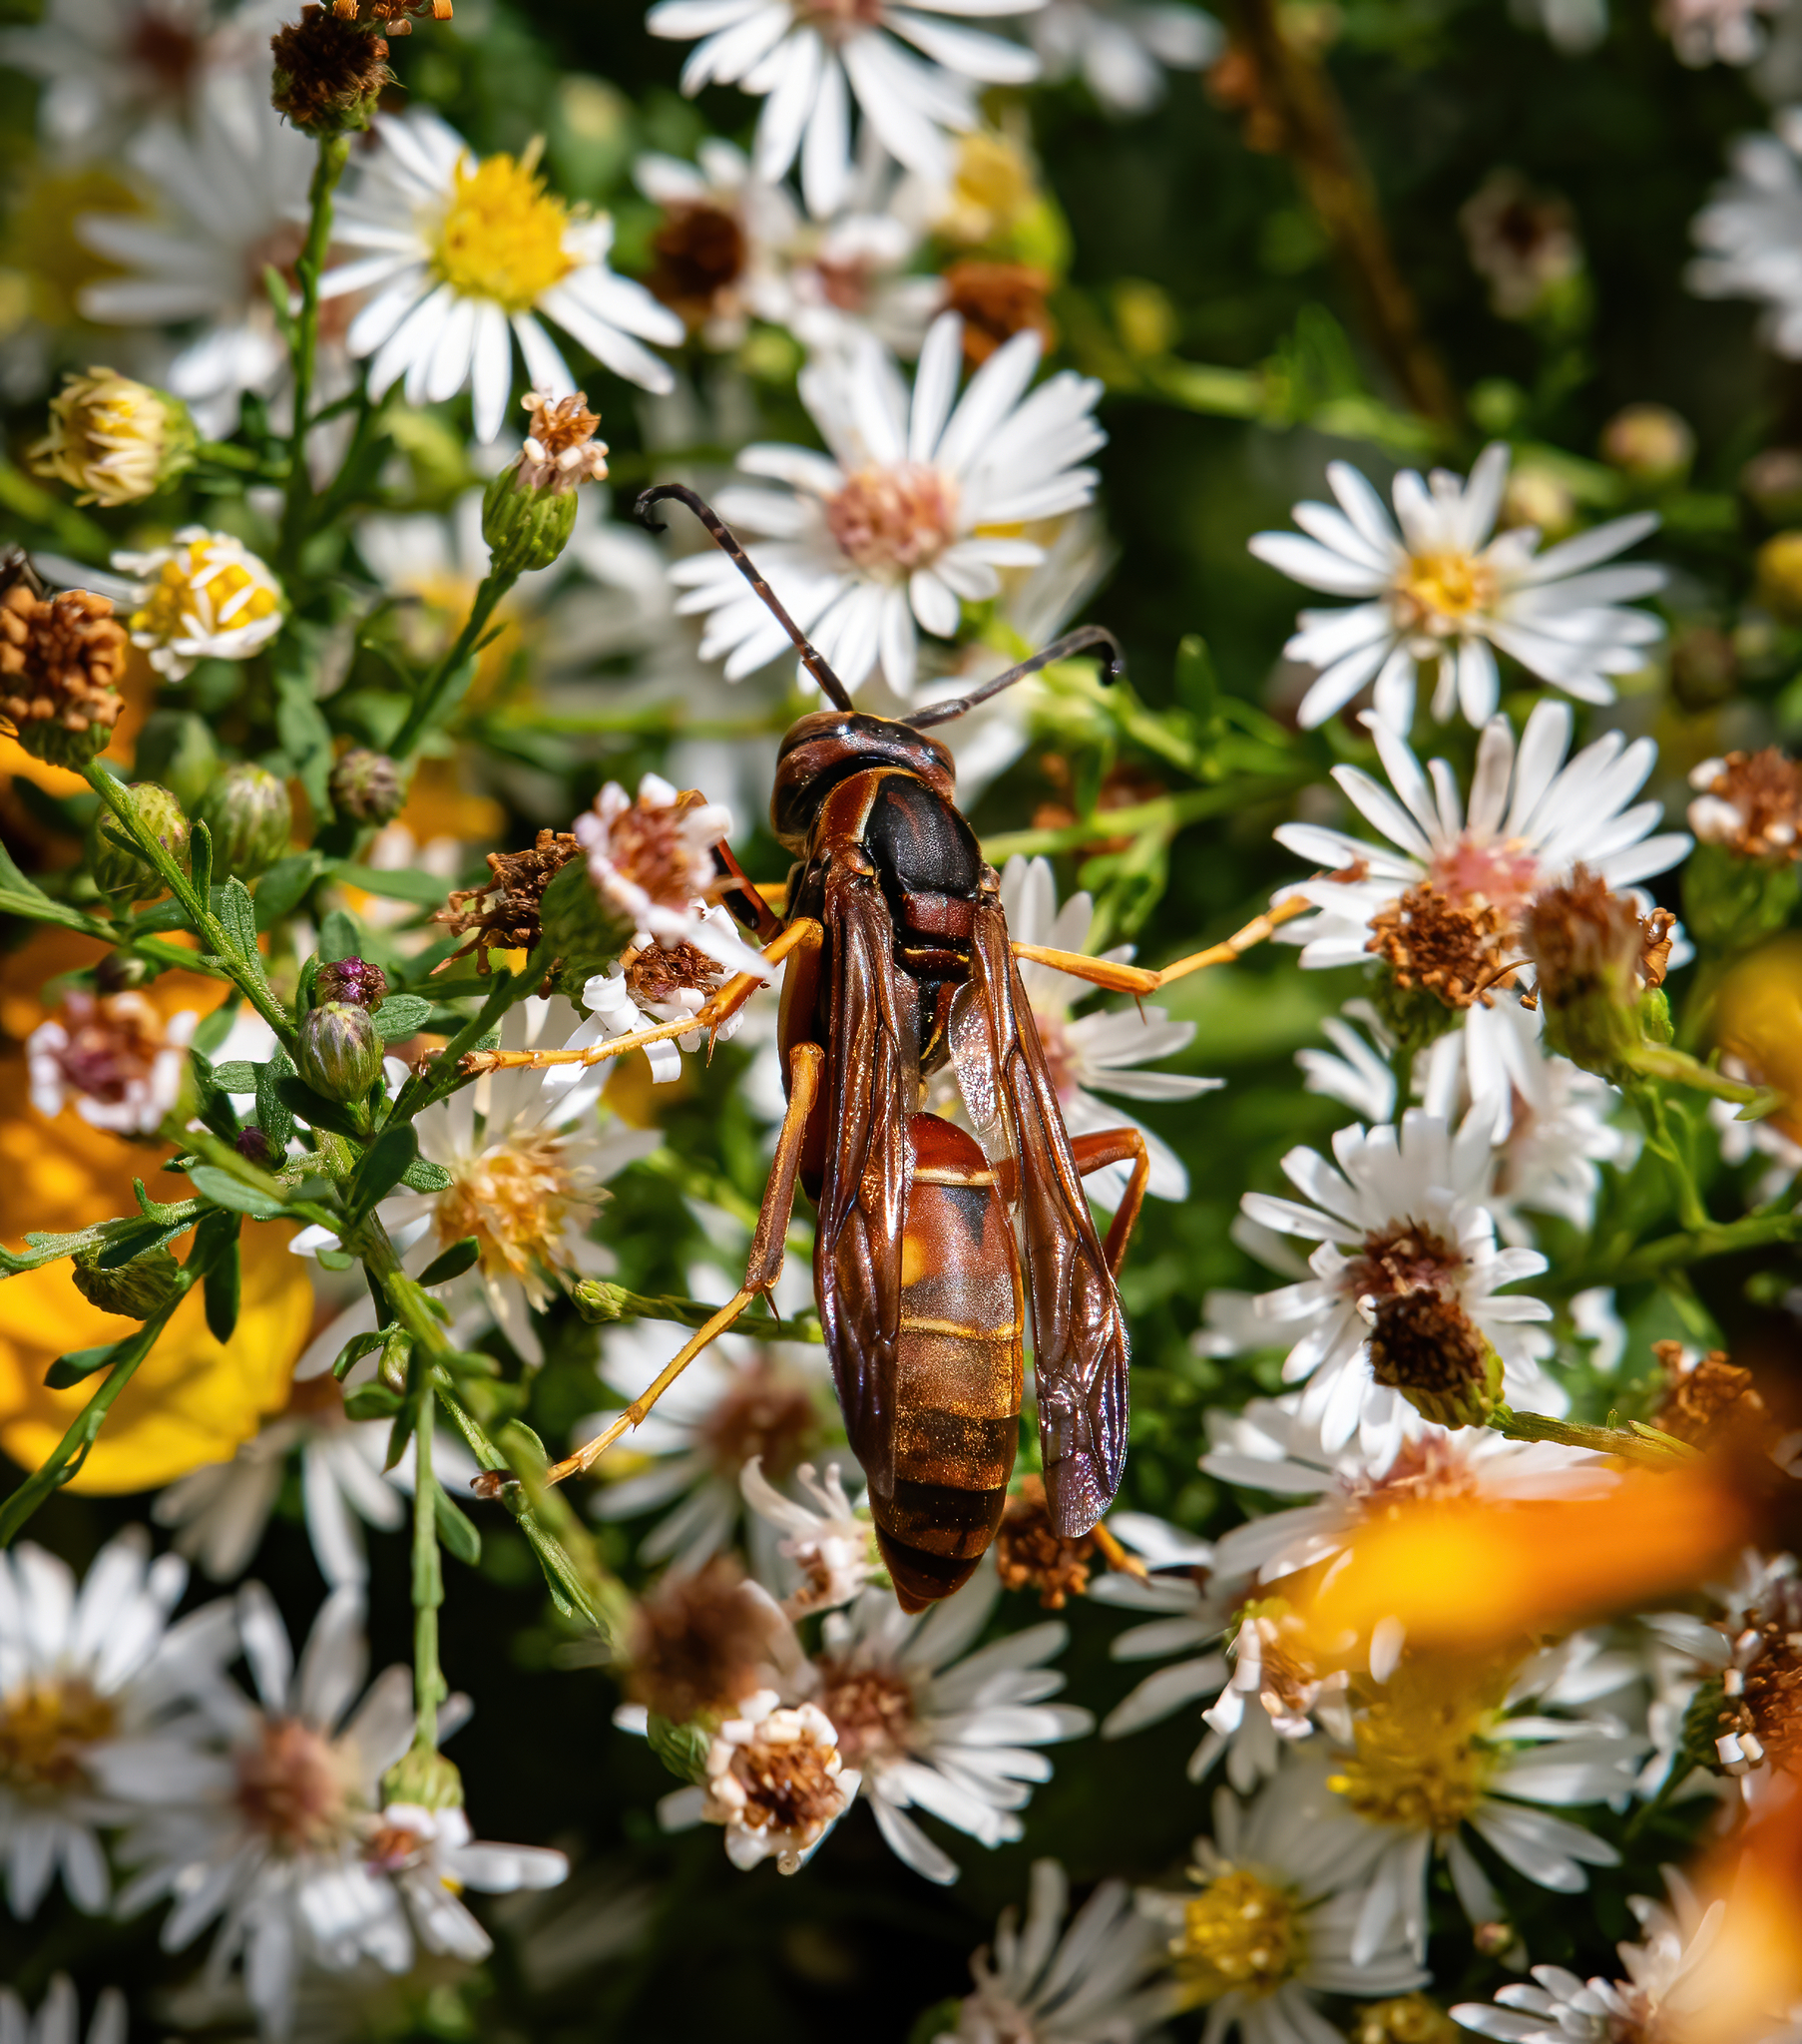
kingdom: Animalia
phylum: Arthropoda
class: Insecta
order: Hymenoptera
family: Eumenidae
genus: Polistes
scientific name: Polistes fuscatus
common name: Dark paper wasp
